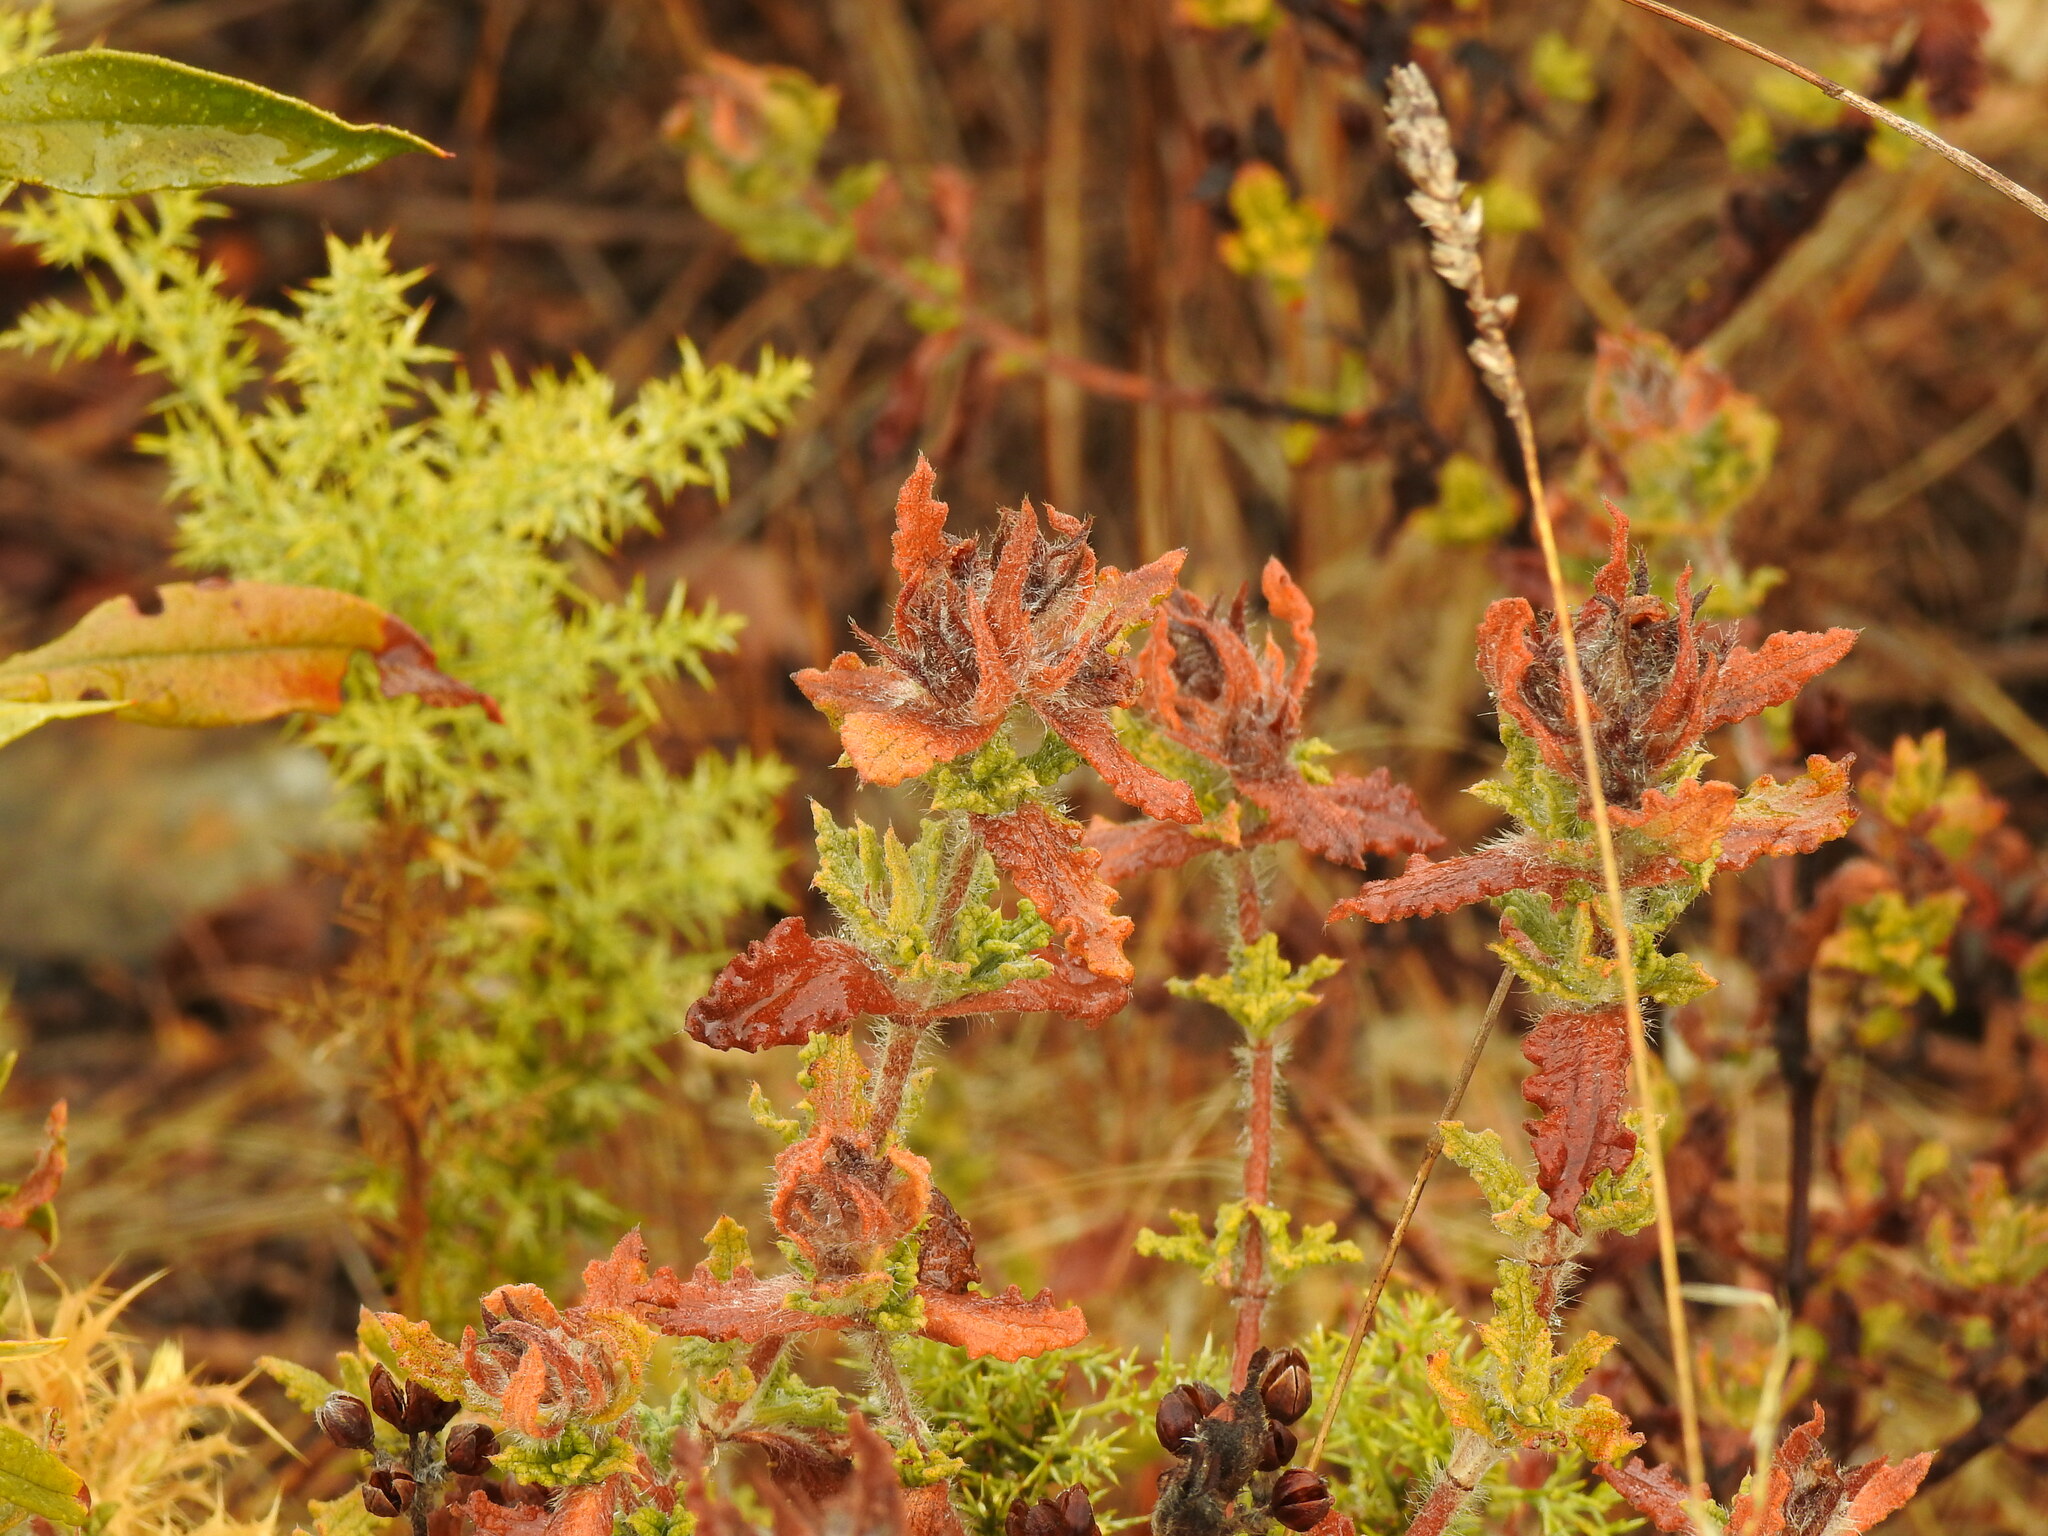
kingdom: Plantae
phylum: Tracheophyta
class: Magnoliopsida
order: Malvales
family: Cistaceae
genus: Cistus
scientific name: Cistus crispus
